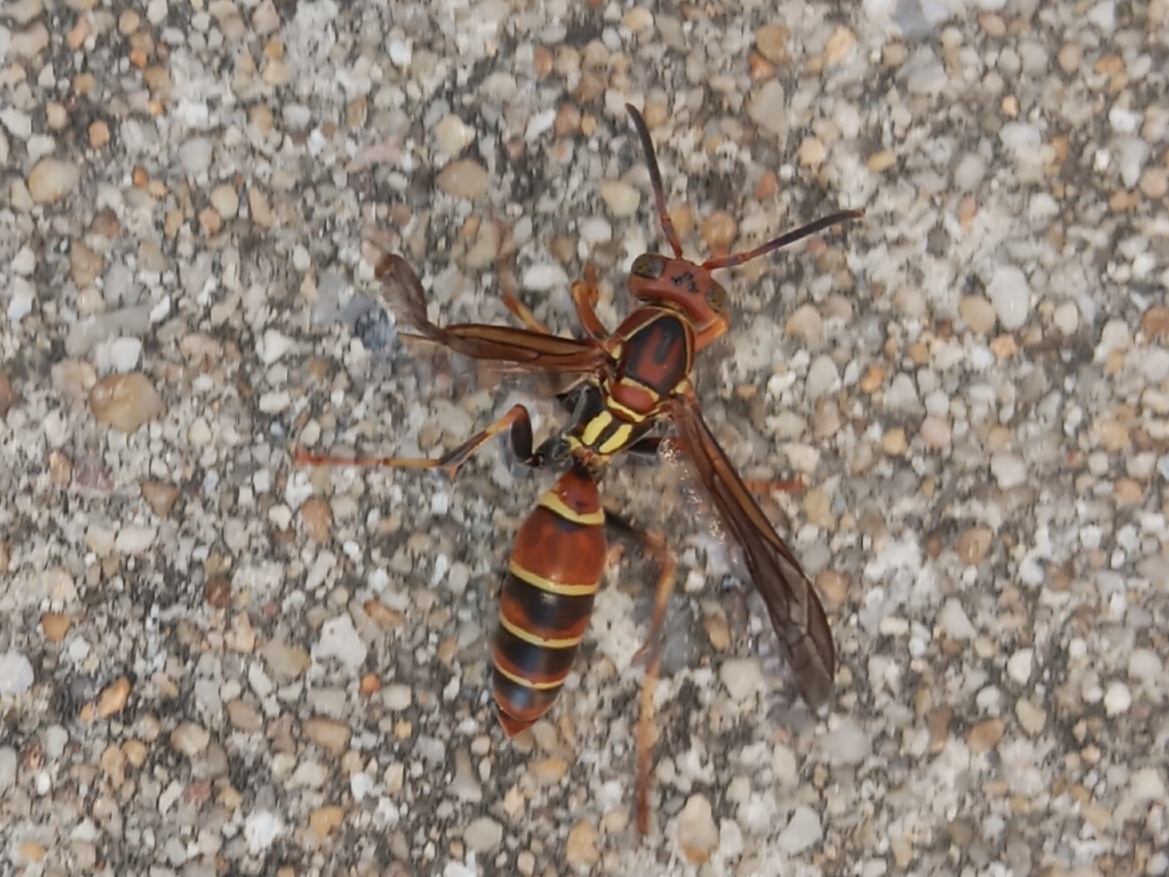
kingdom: Animalia
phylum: Arthropoda
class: Insecta
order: Hymenoptera
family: Eumenidae
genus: Polistes
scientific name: Polistes dorsalis
